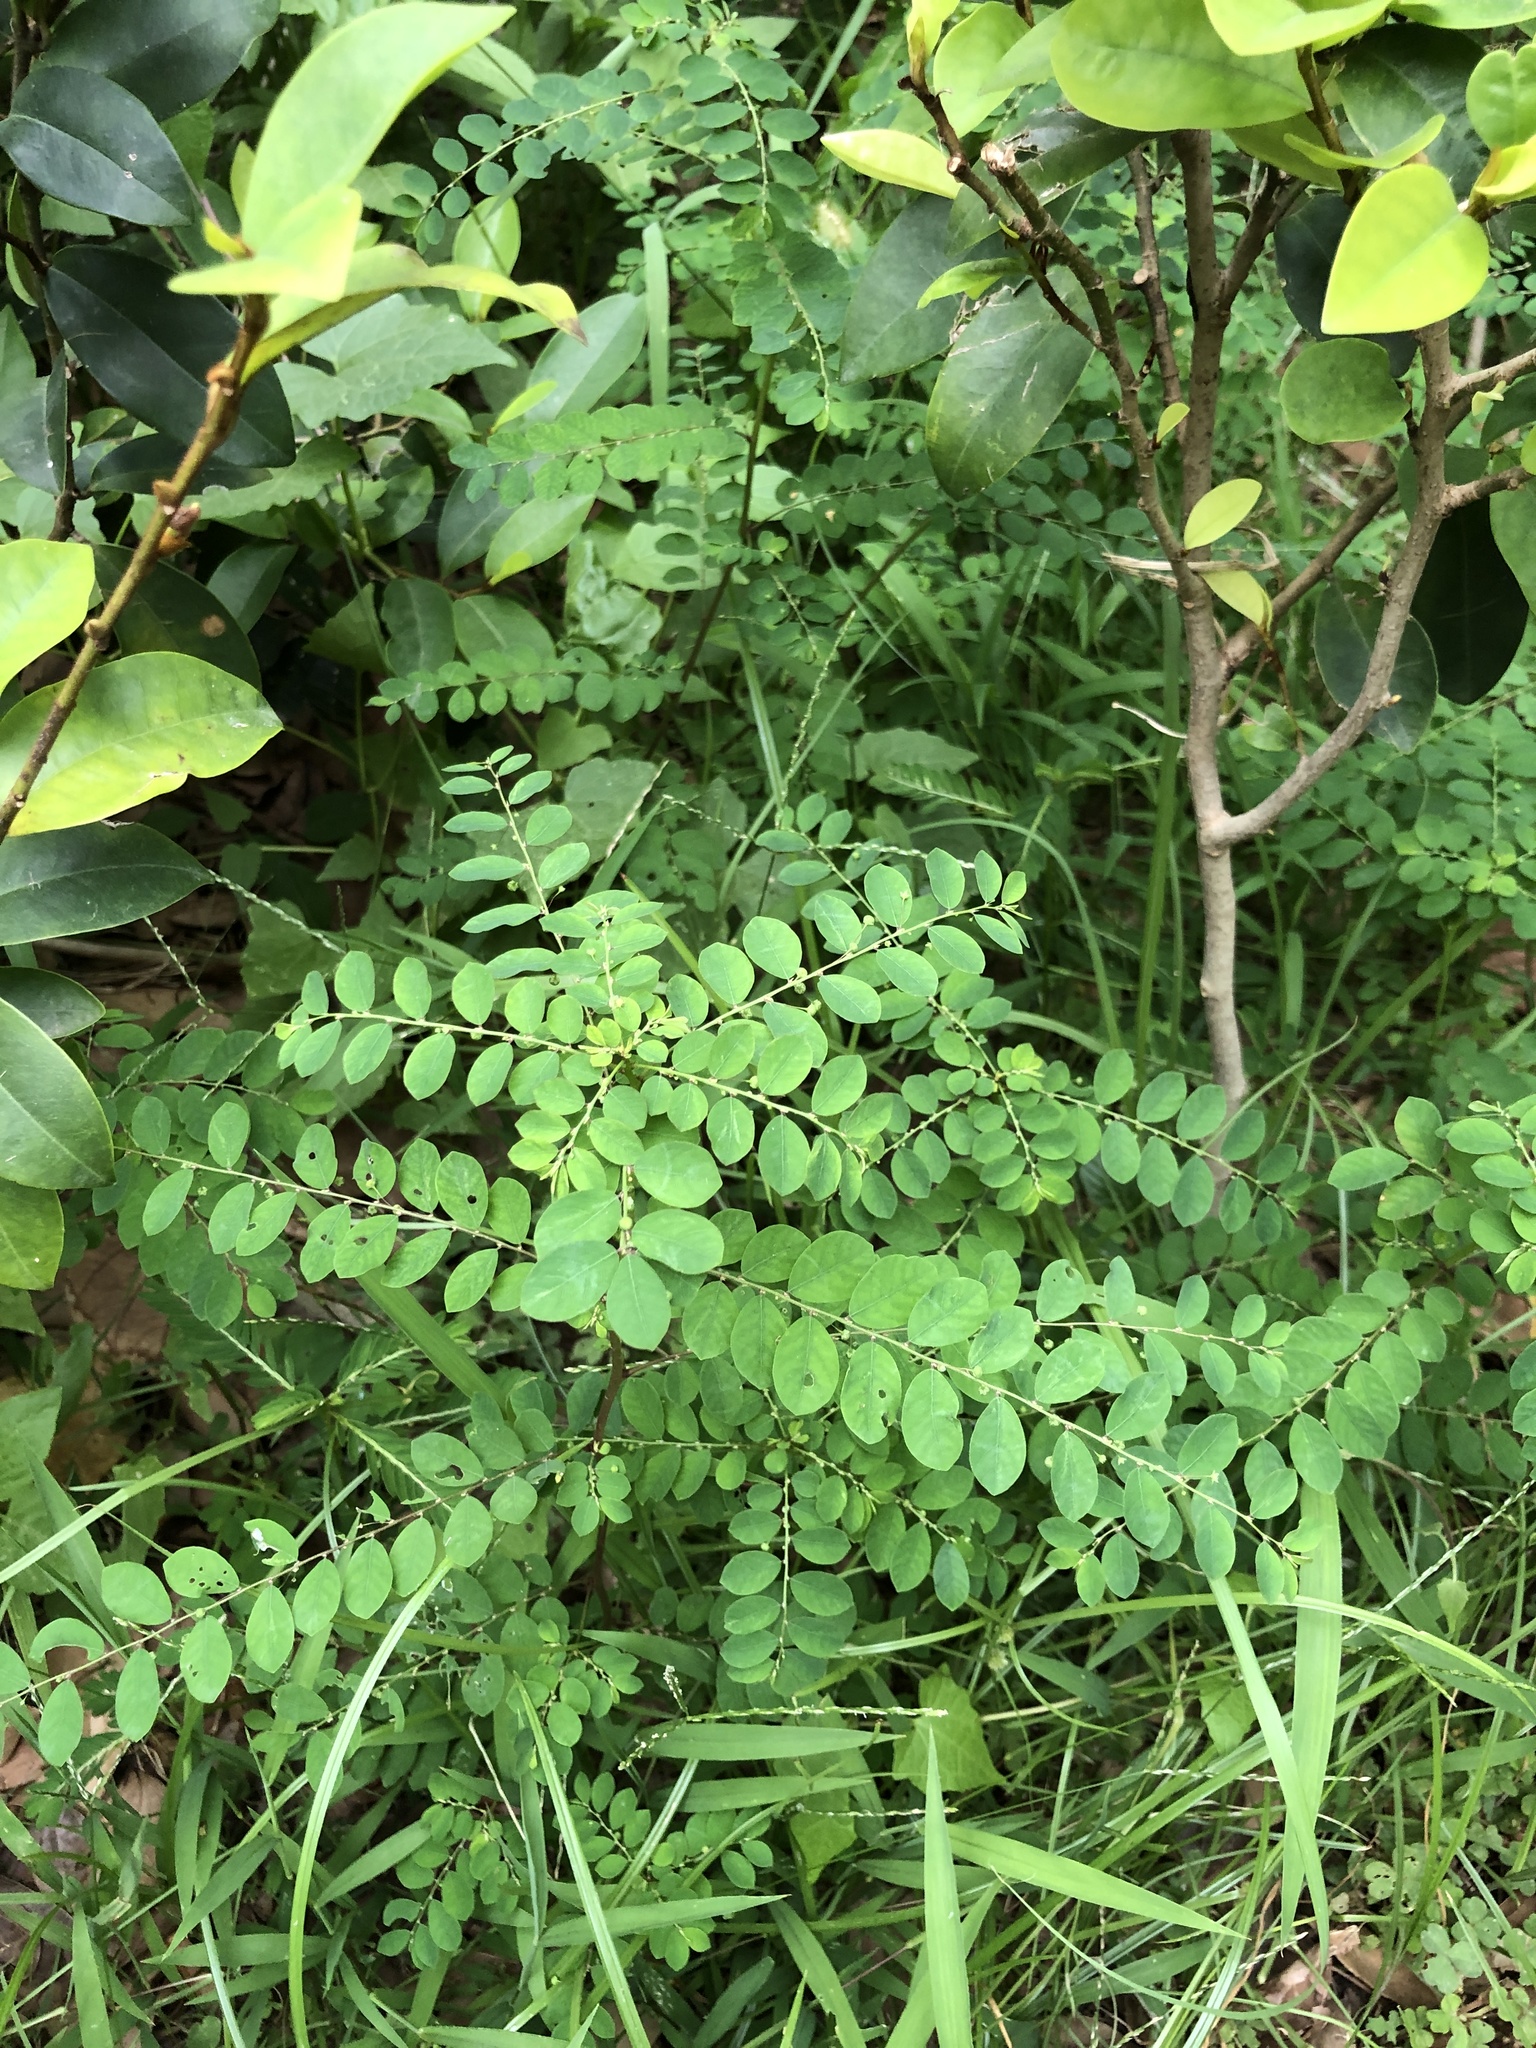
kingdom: Plantae
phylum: Tracheophyta
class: Magnoliopsida
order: Malpighiales
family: Phyllanthaceae
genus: Phyllanthus
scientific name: Phyllanthus tenellus
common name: Mascarene island leaf-flower
